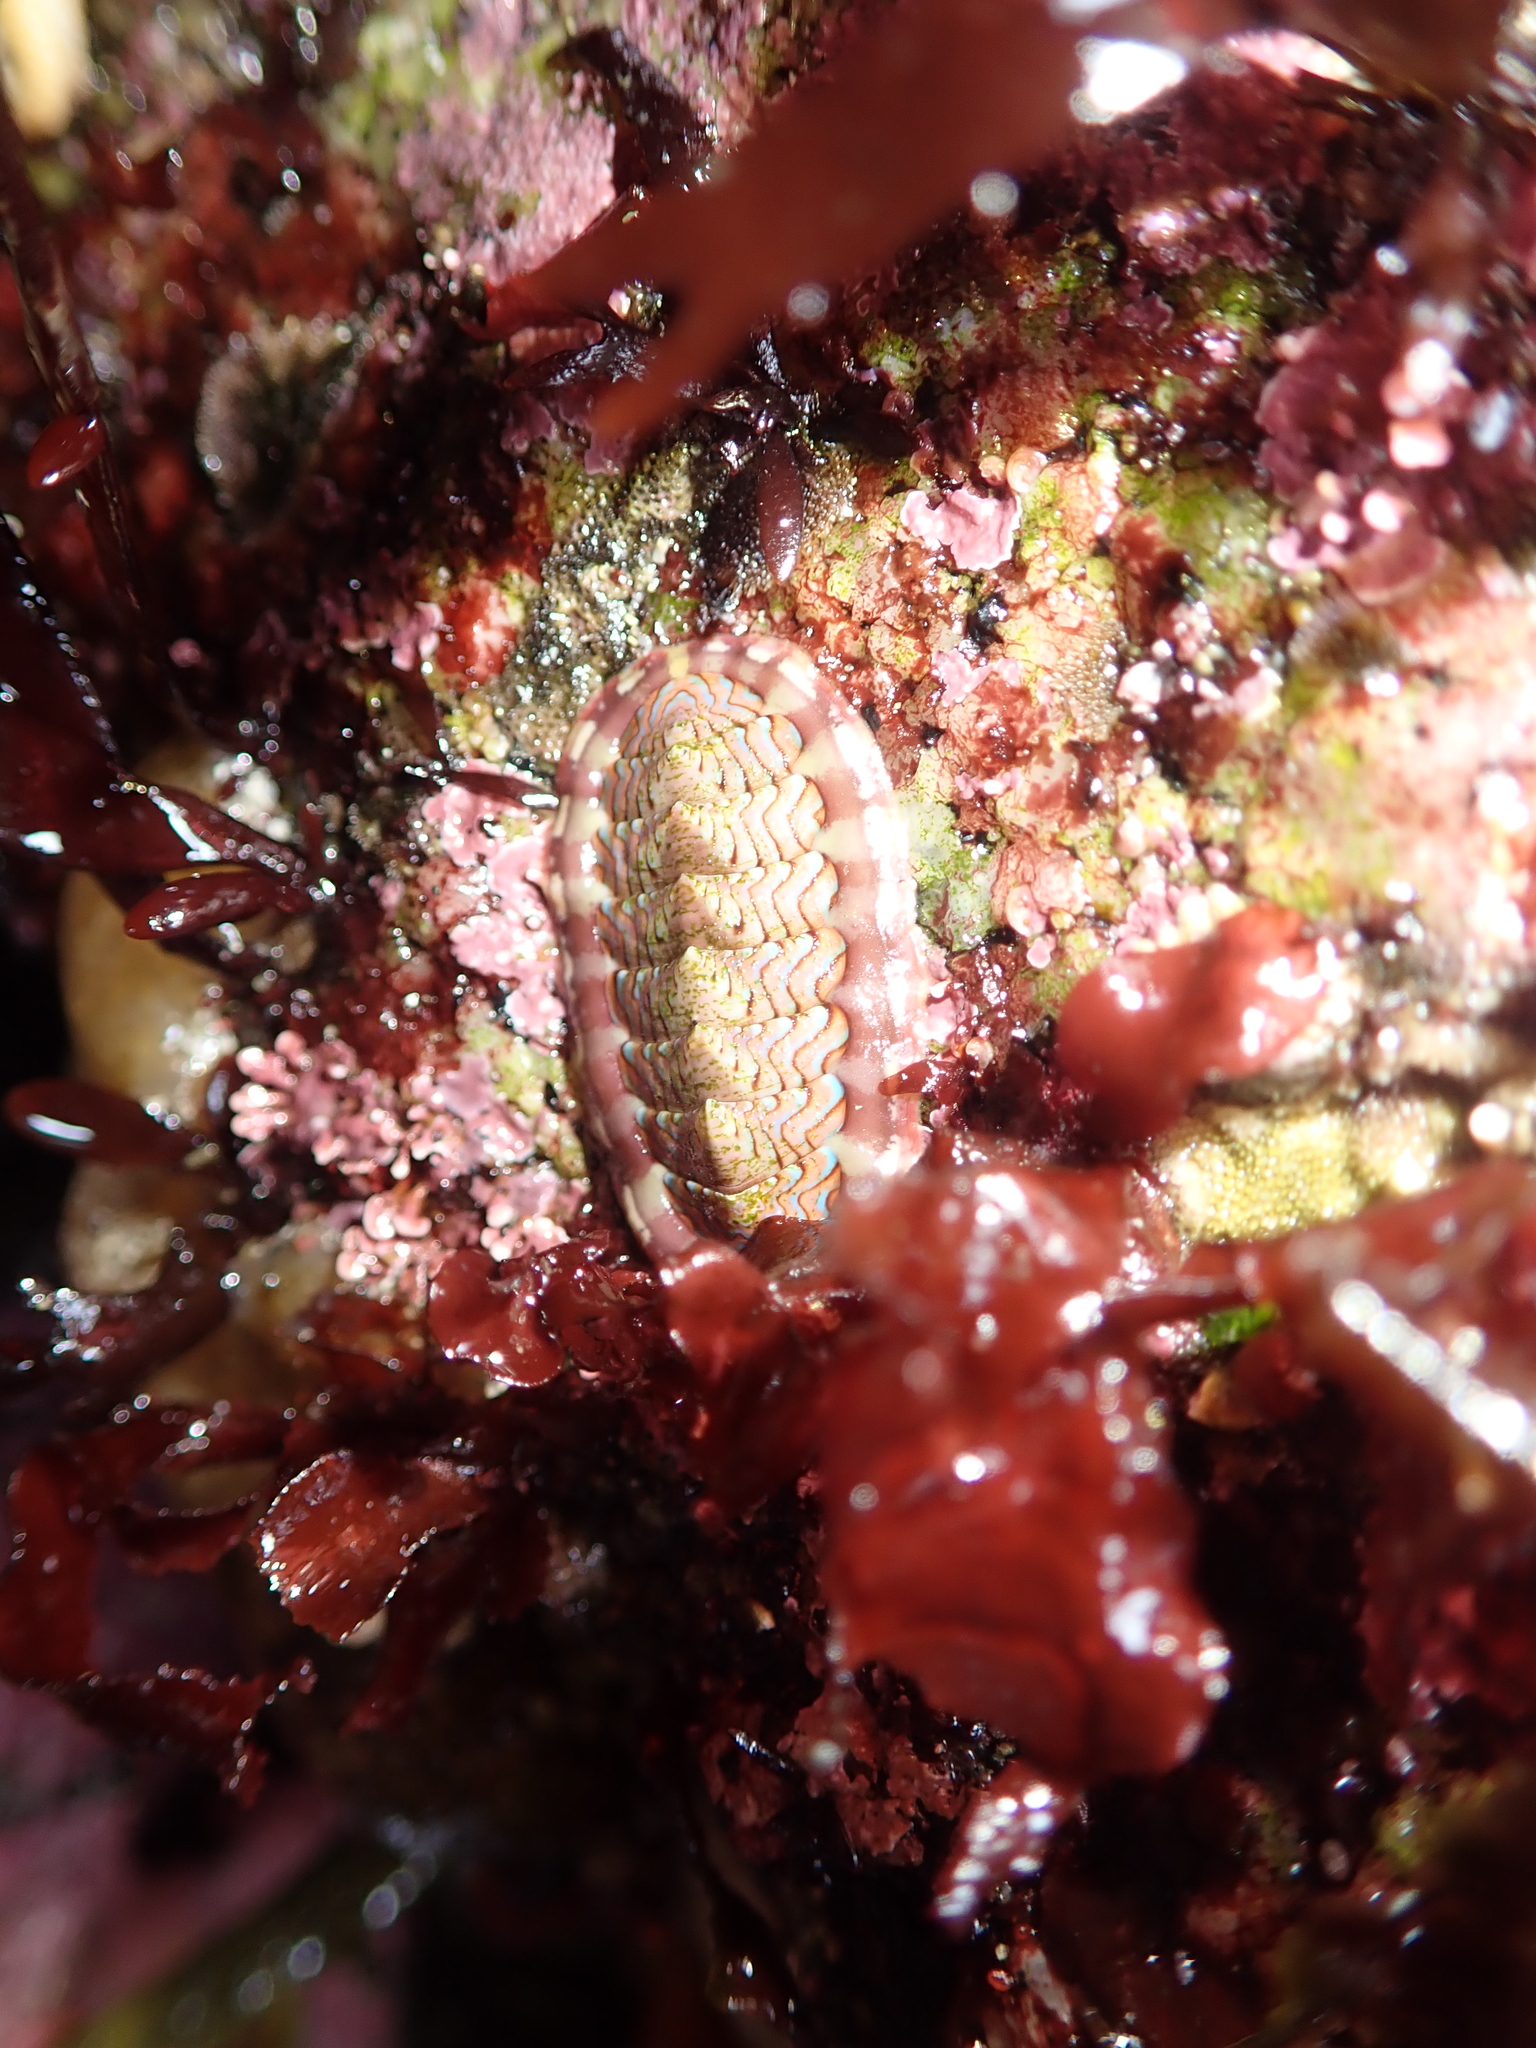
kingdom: Animalia
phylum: Mollusca
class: Polyplacophora
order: Chitonida
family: Tonicellidae
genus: Tonicella
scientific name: Tonicella lokii
